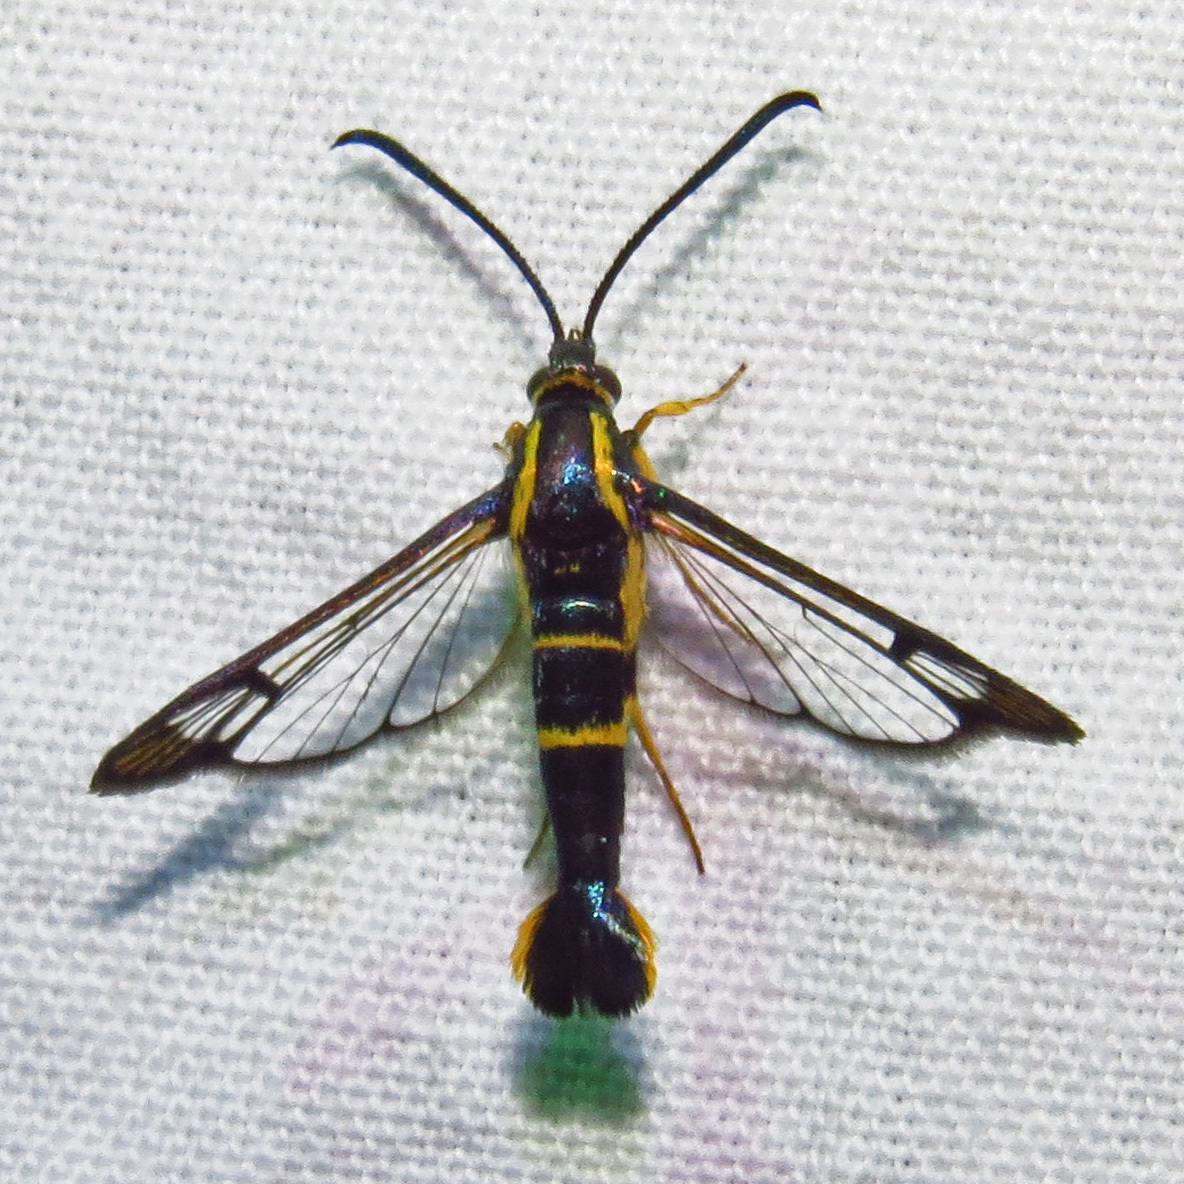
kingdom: Animalia
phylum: Arthropoda
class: Insecta
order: Lepidoptera
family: Sesiidae
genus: Synanthedon
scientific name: Synanthedon scitula
